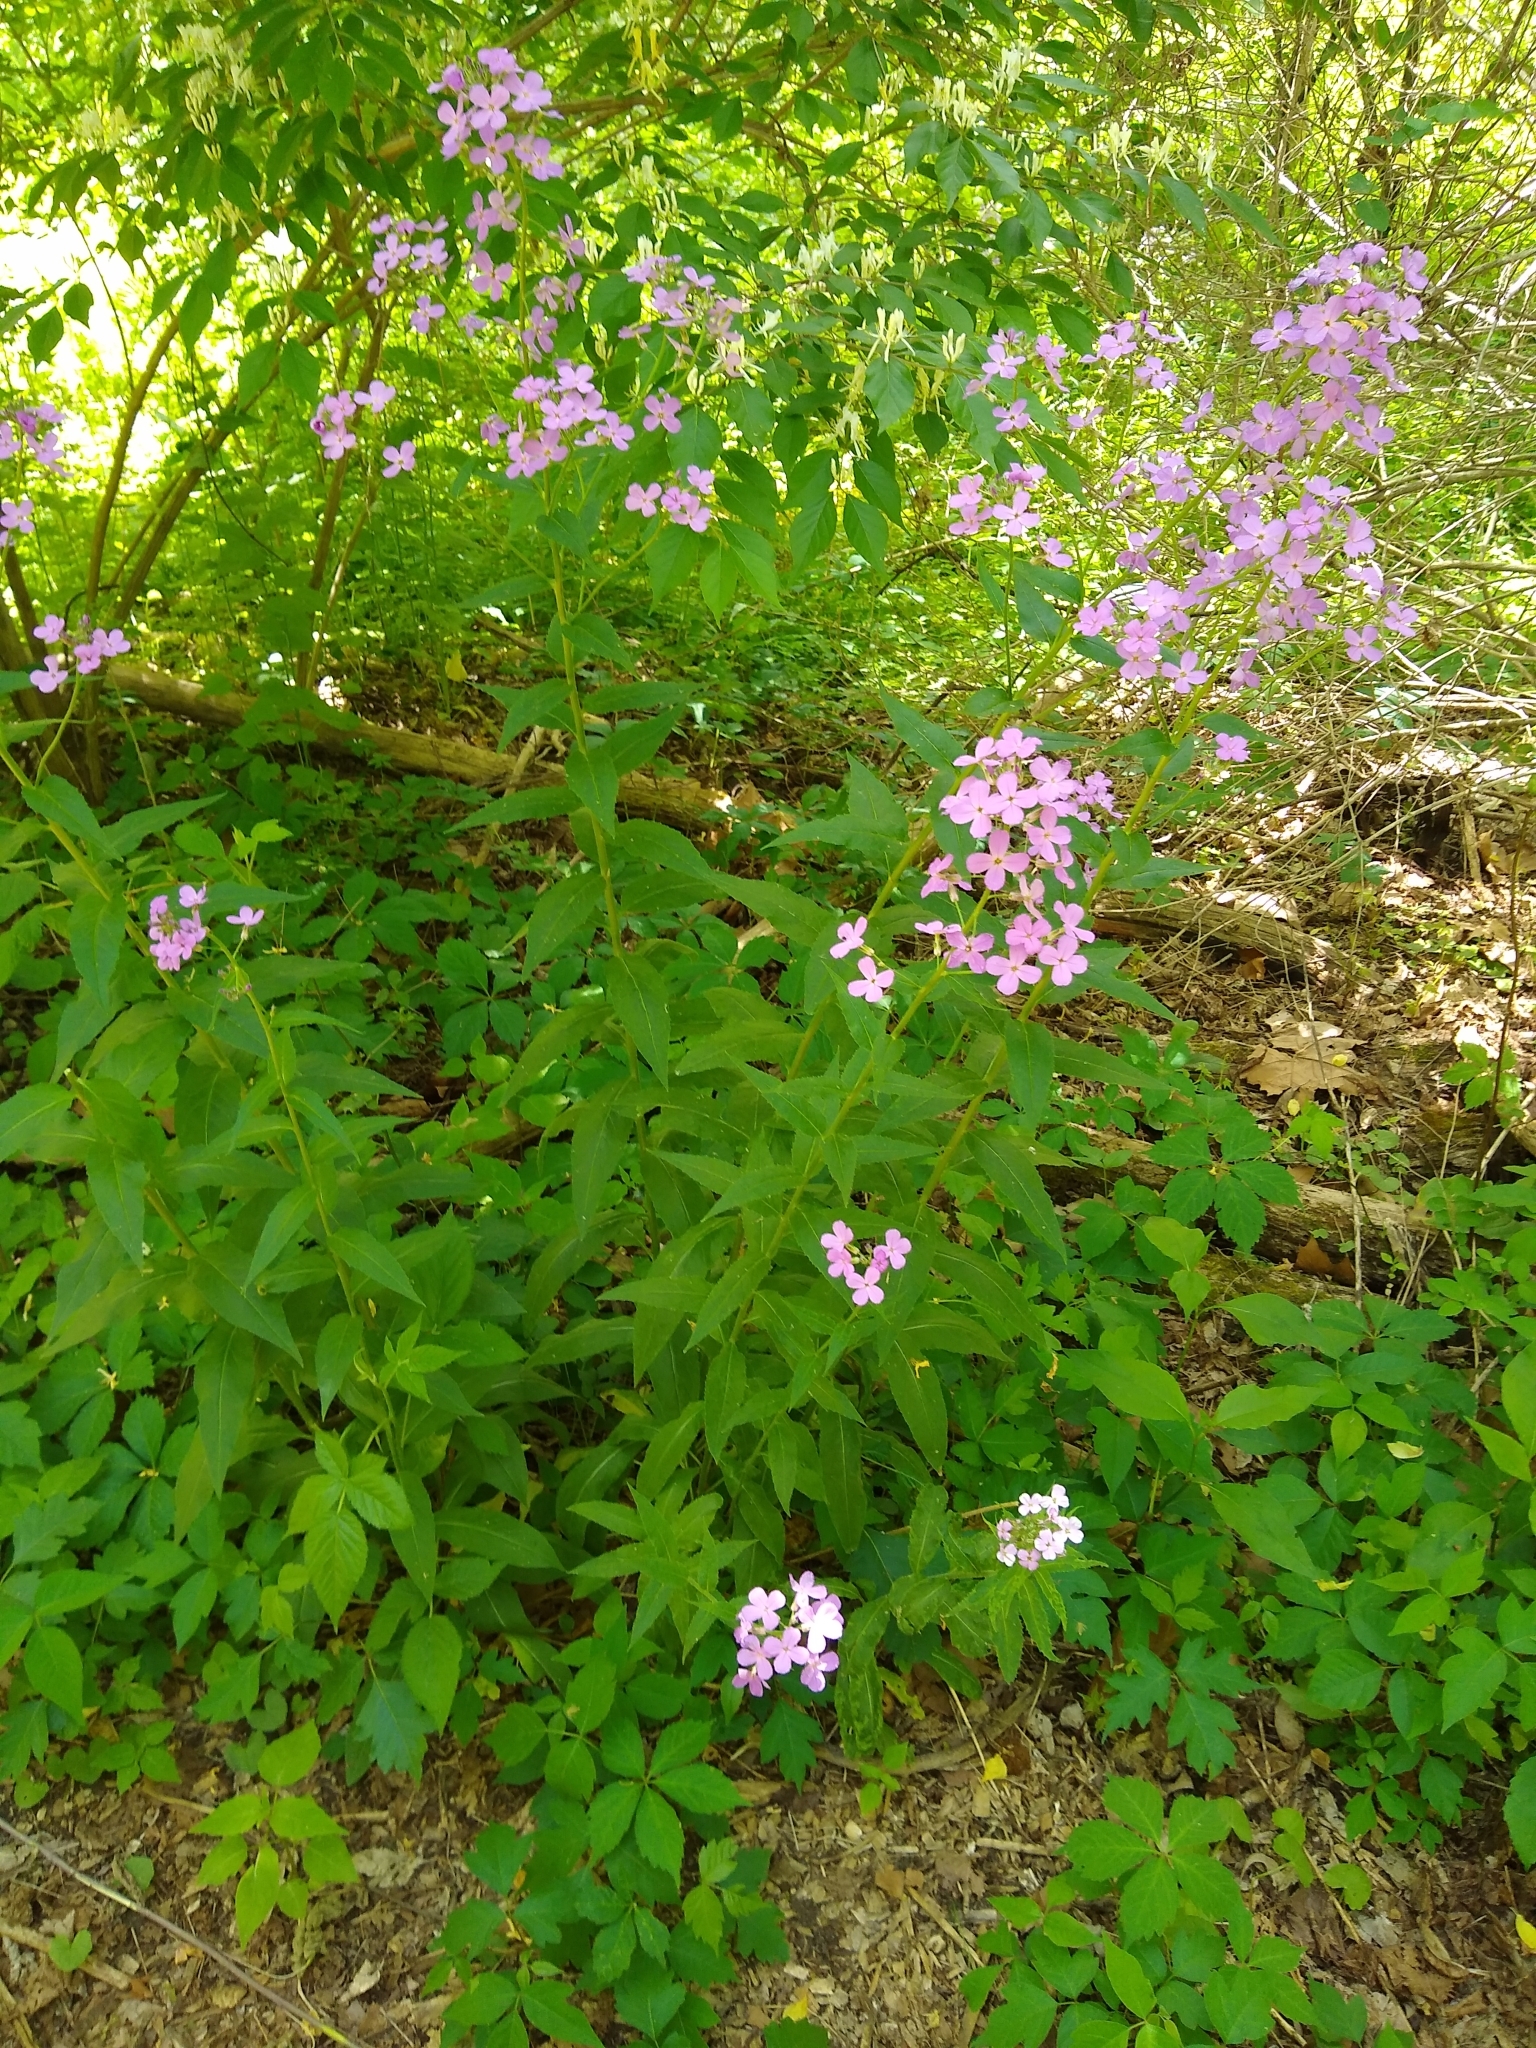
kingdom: Plantae
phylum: Tracheophyta
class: Magnoliopsida
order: Brassicales
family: Brassicaceae
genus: Hesperis
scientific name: Hesperis matronalis
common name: Dame's-violet
